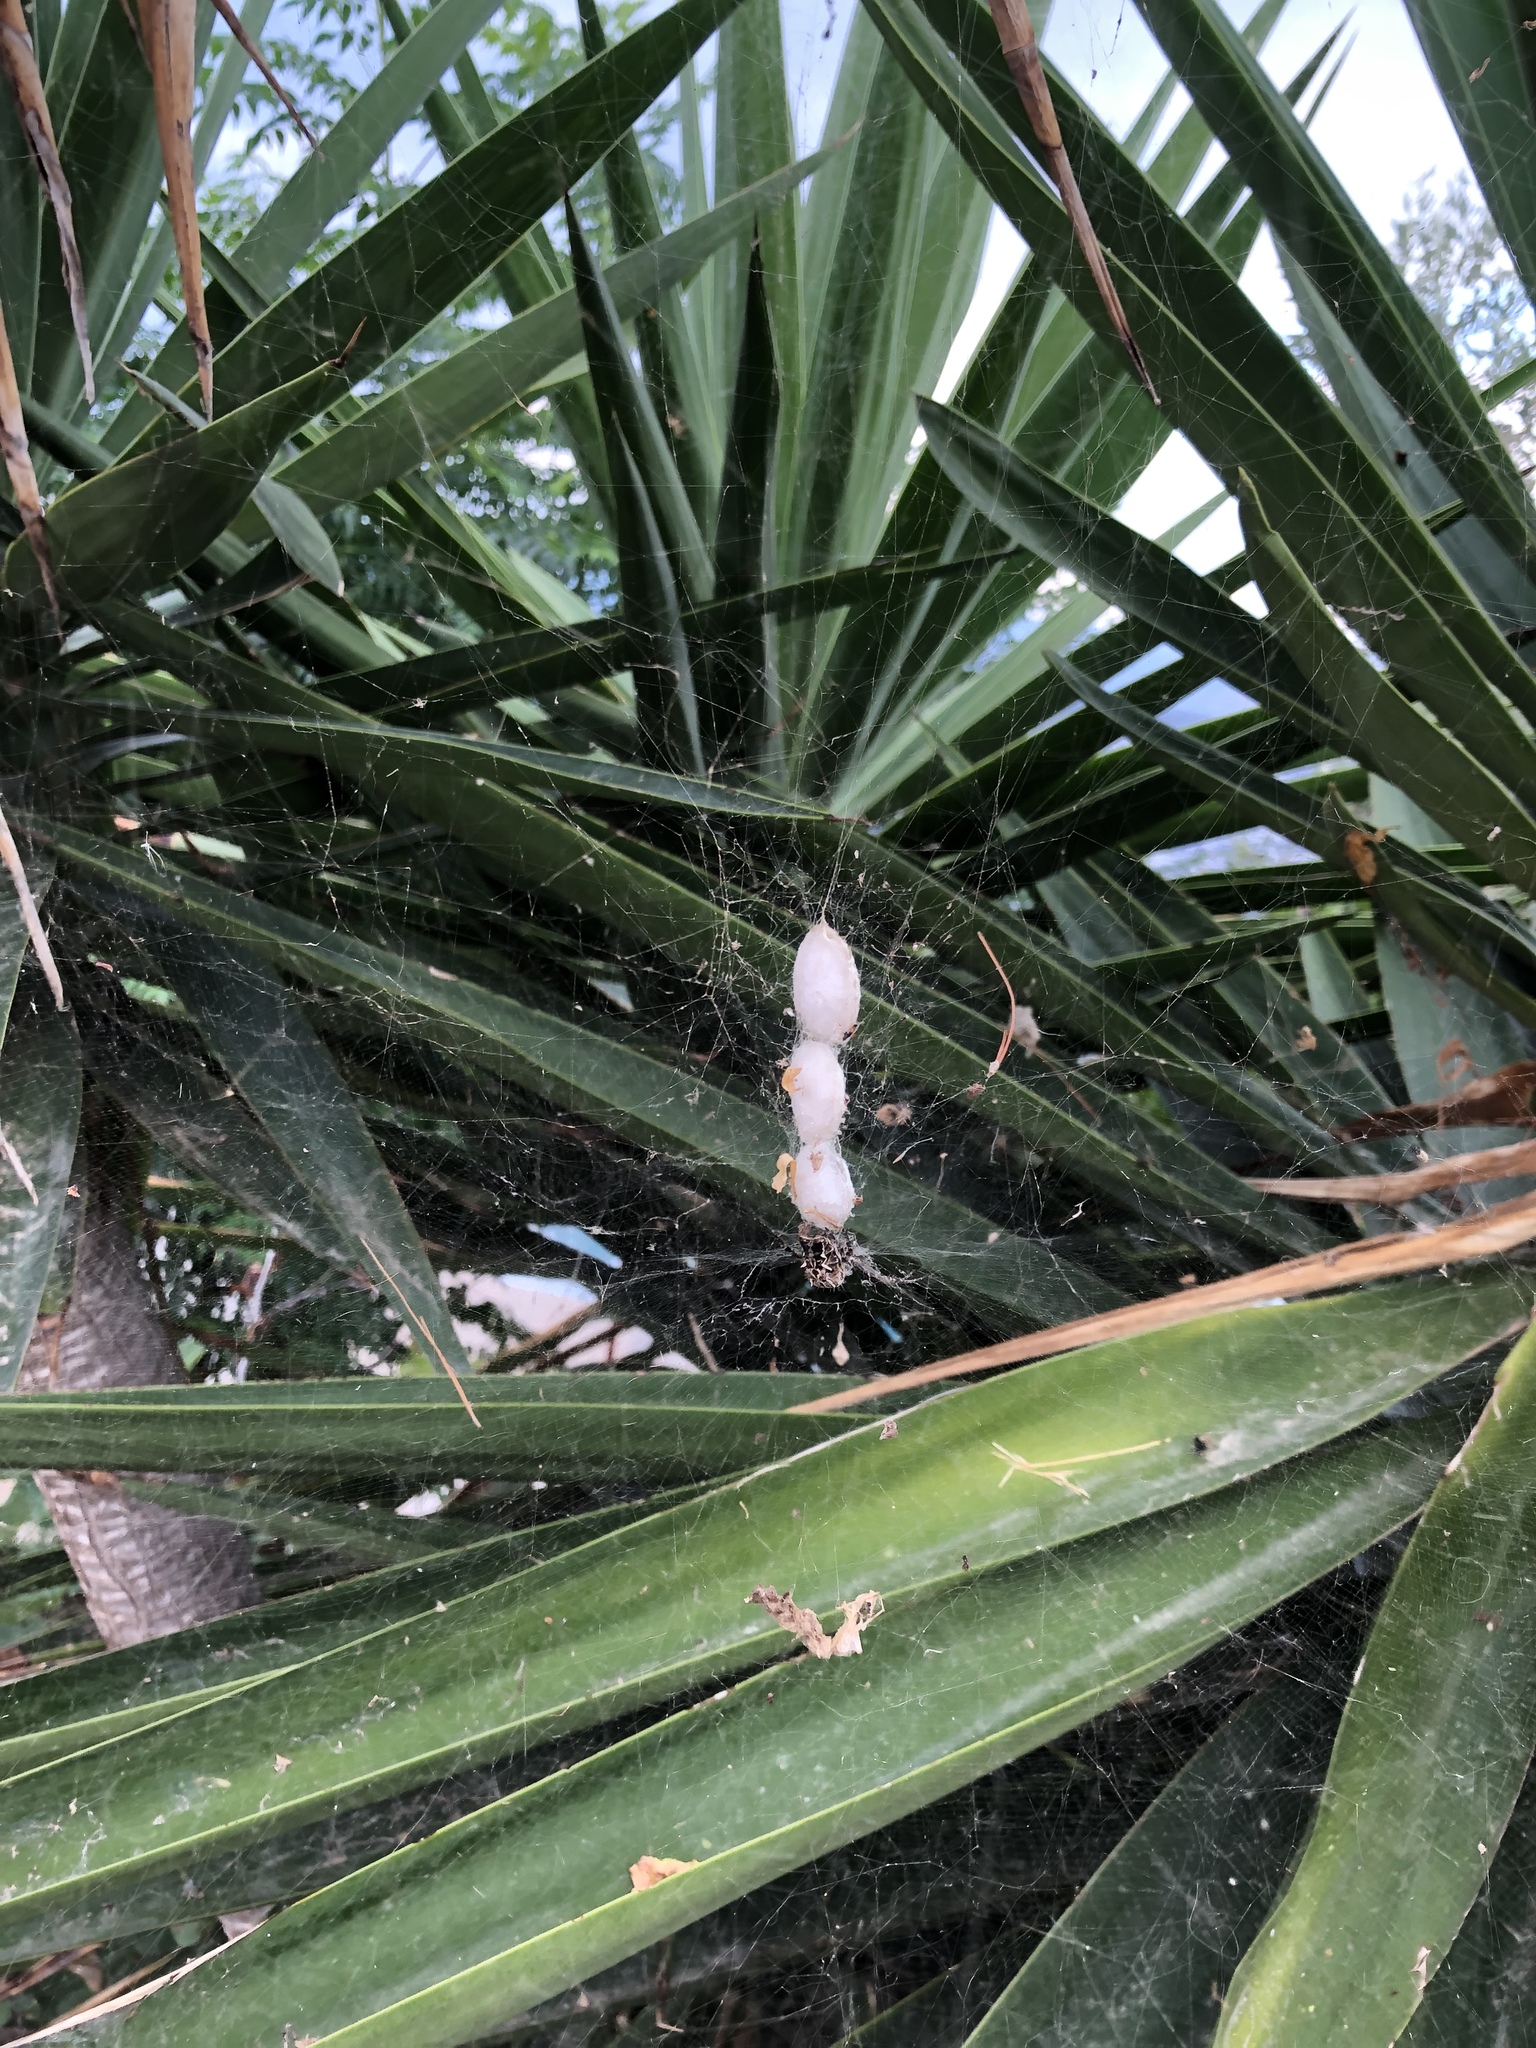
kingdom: Animalia
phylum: Arthropoda
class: Arachnida
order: Araneae
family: Araneidae
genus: Cyrtophora
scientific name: Cyrtophora citricola
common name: Orb weavers
